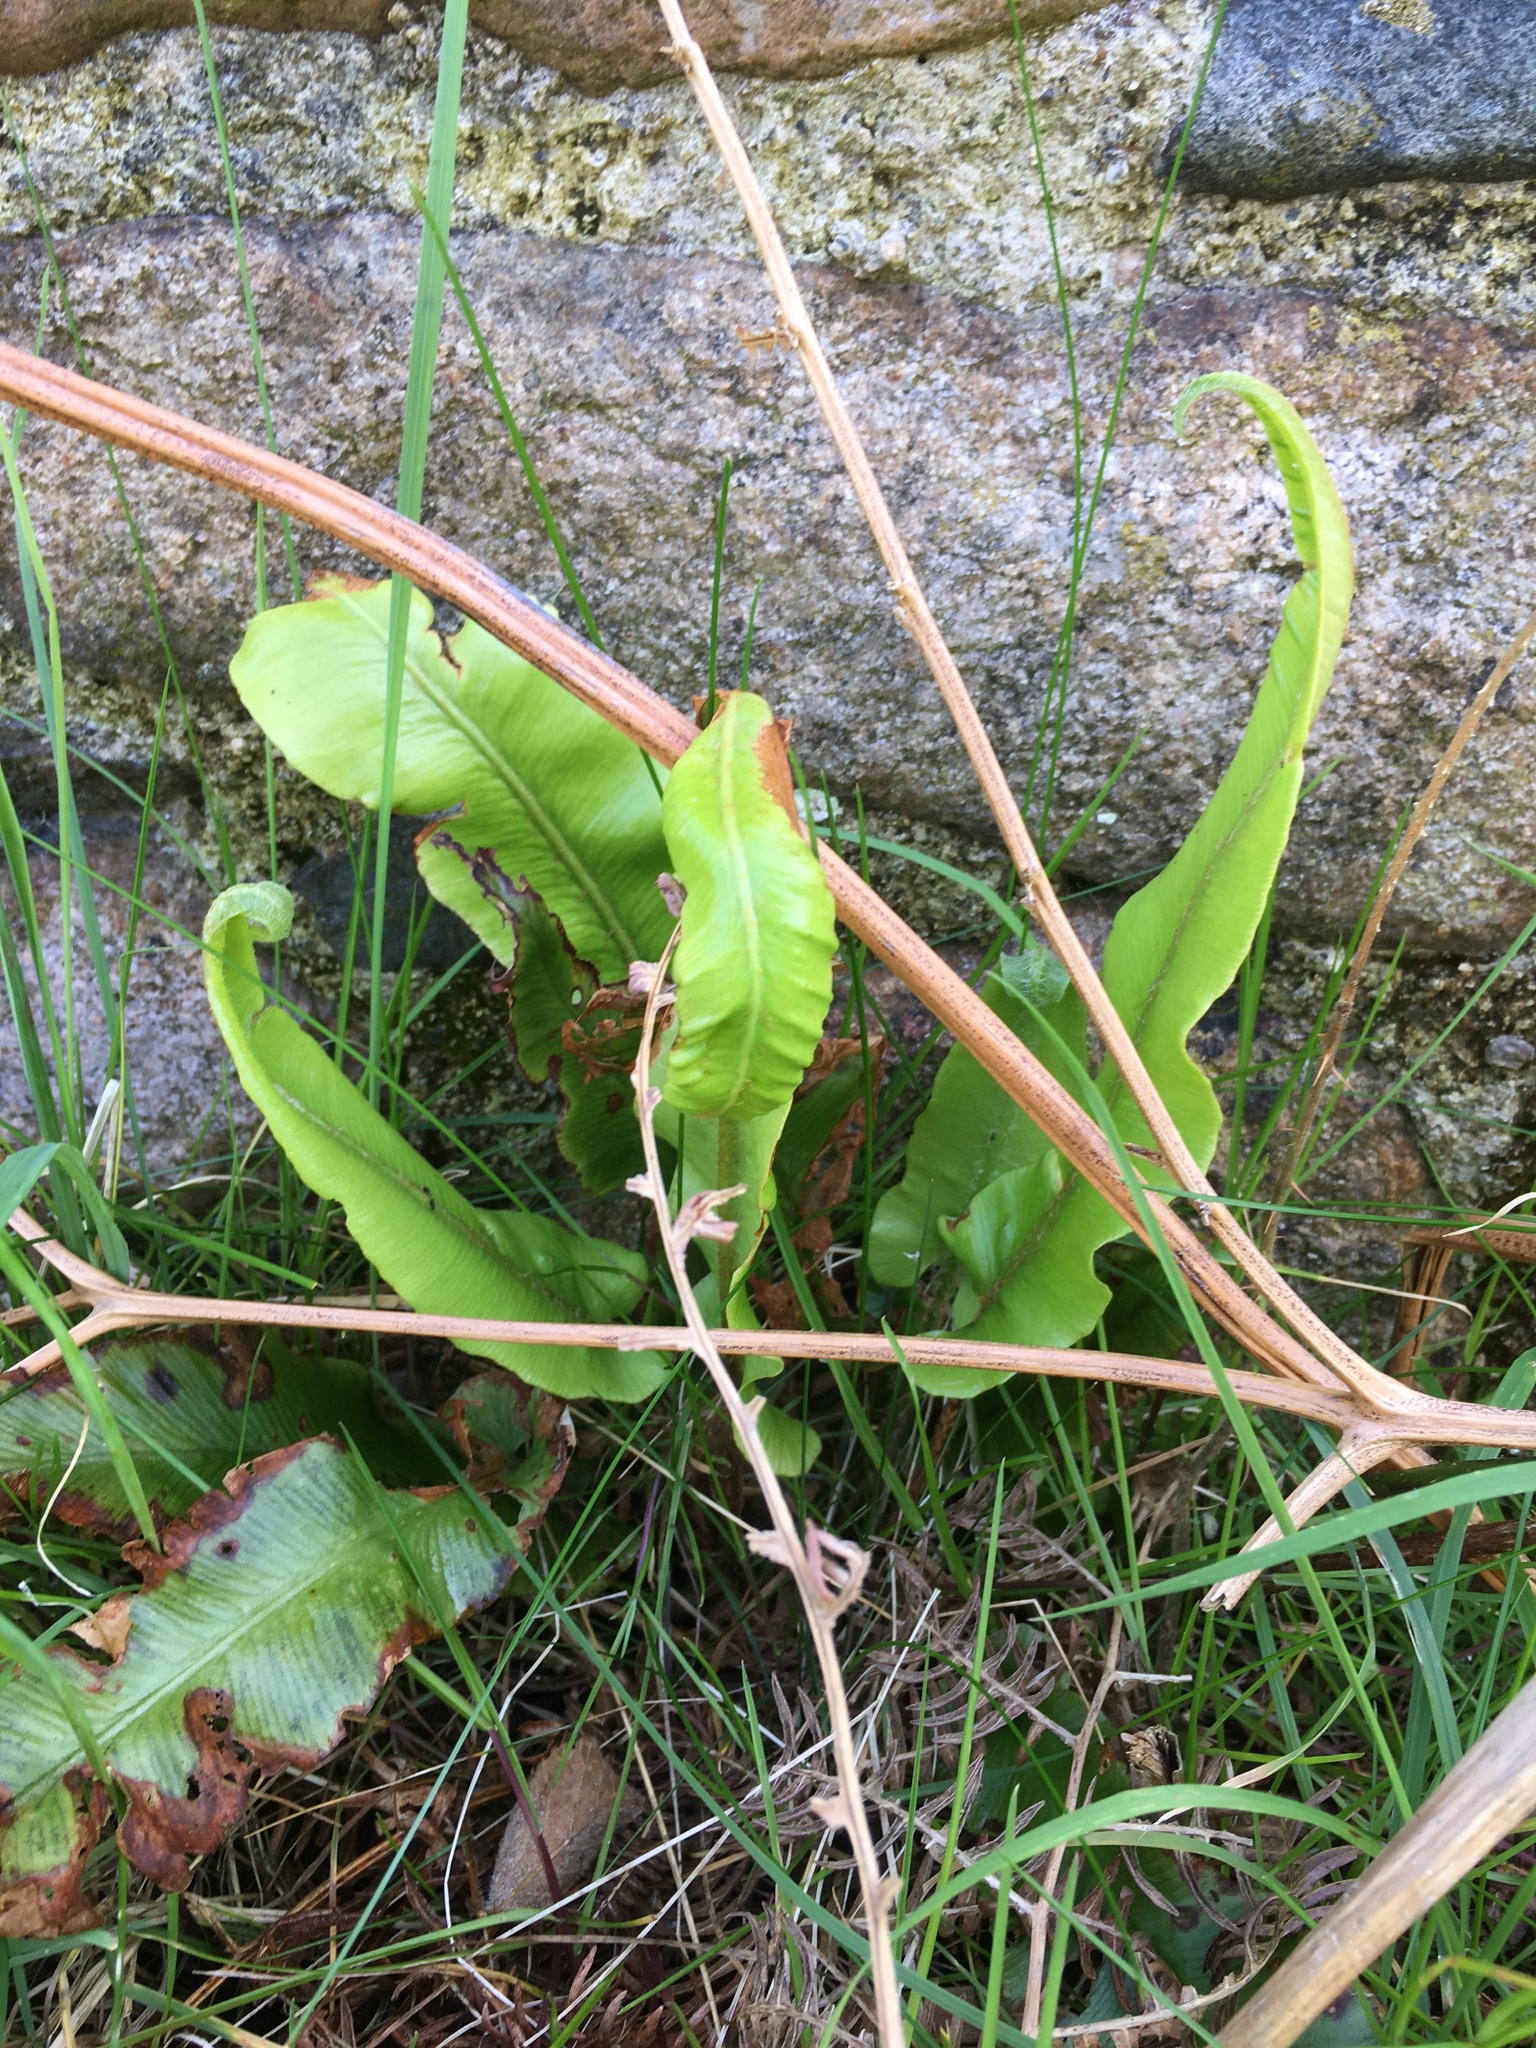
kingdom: Plantae
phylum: Tracheophyta
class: Polypodiopsida
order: Polypodiales
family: Aspleniaceae
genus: Asplenium
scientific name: Asplenium scolopendrium
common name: Hart's-tongue fern
